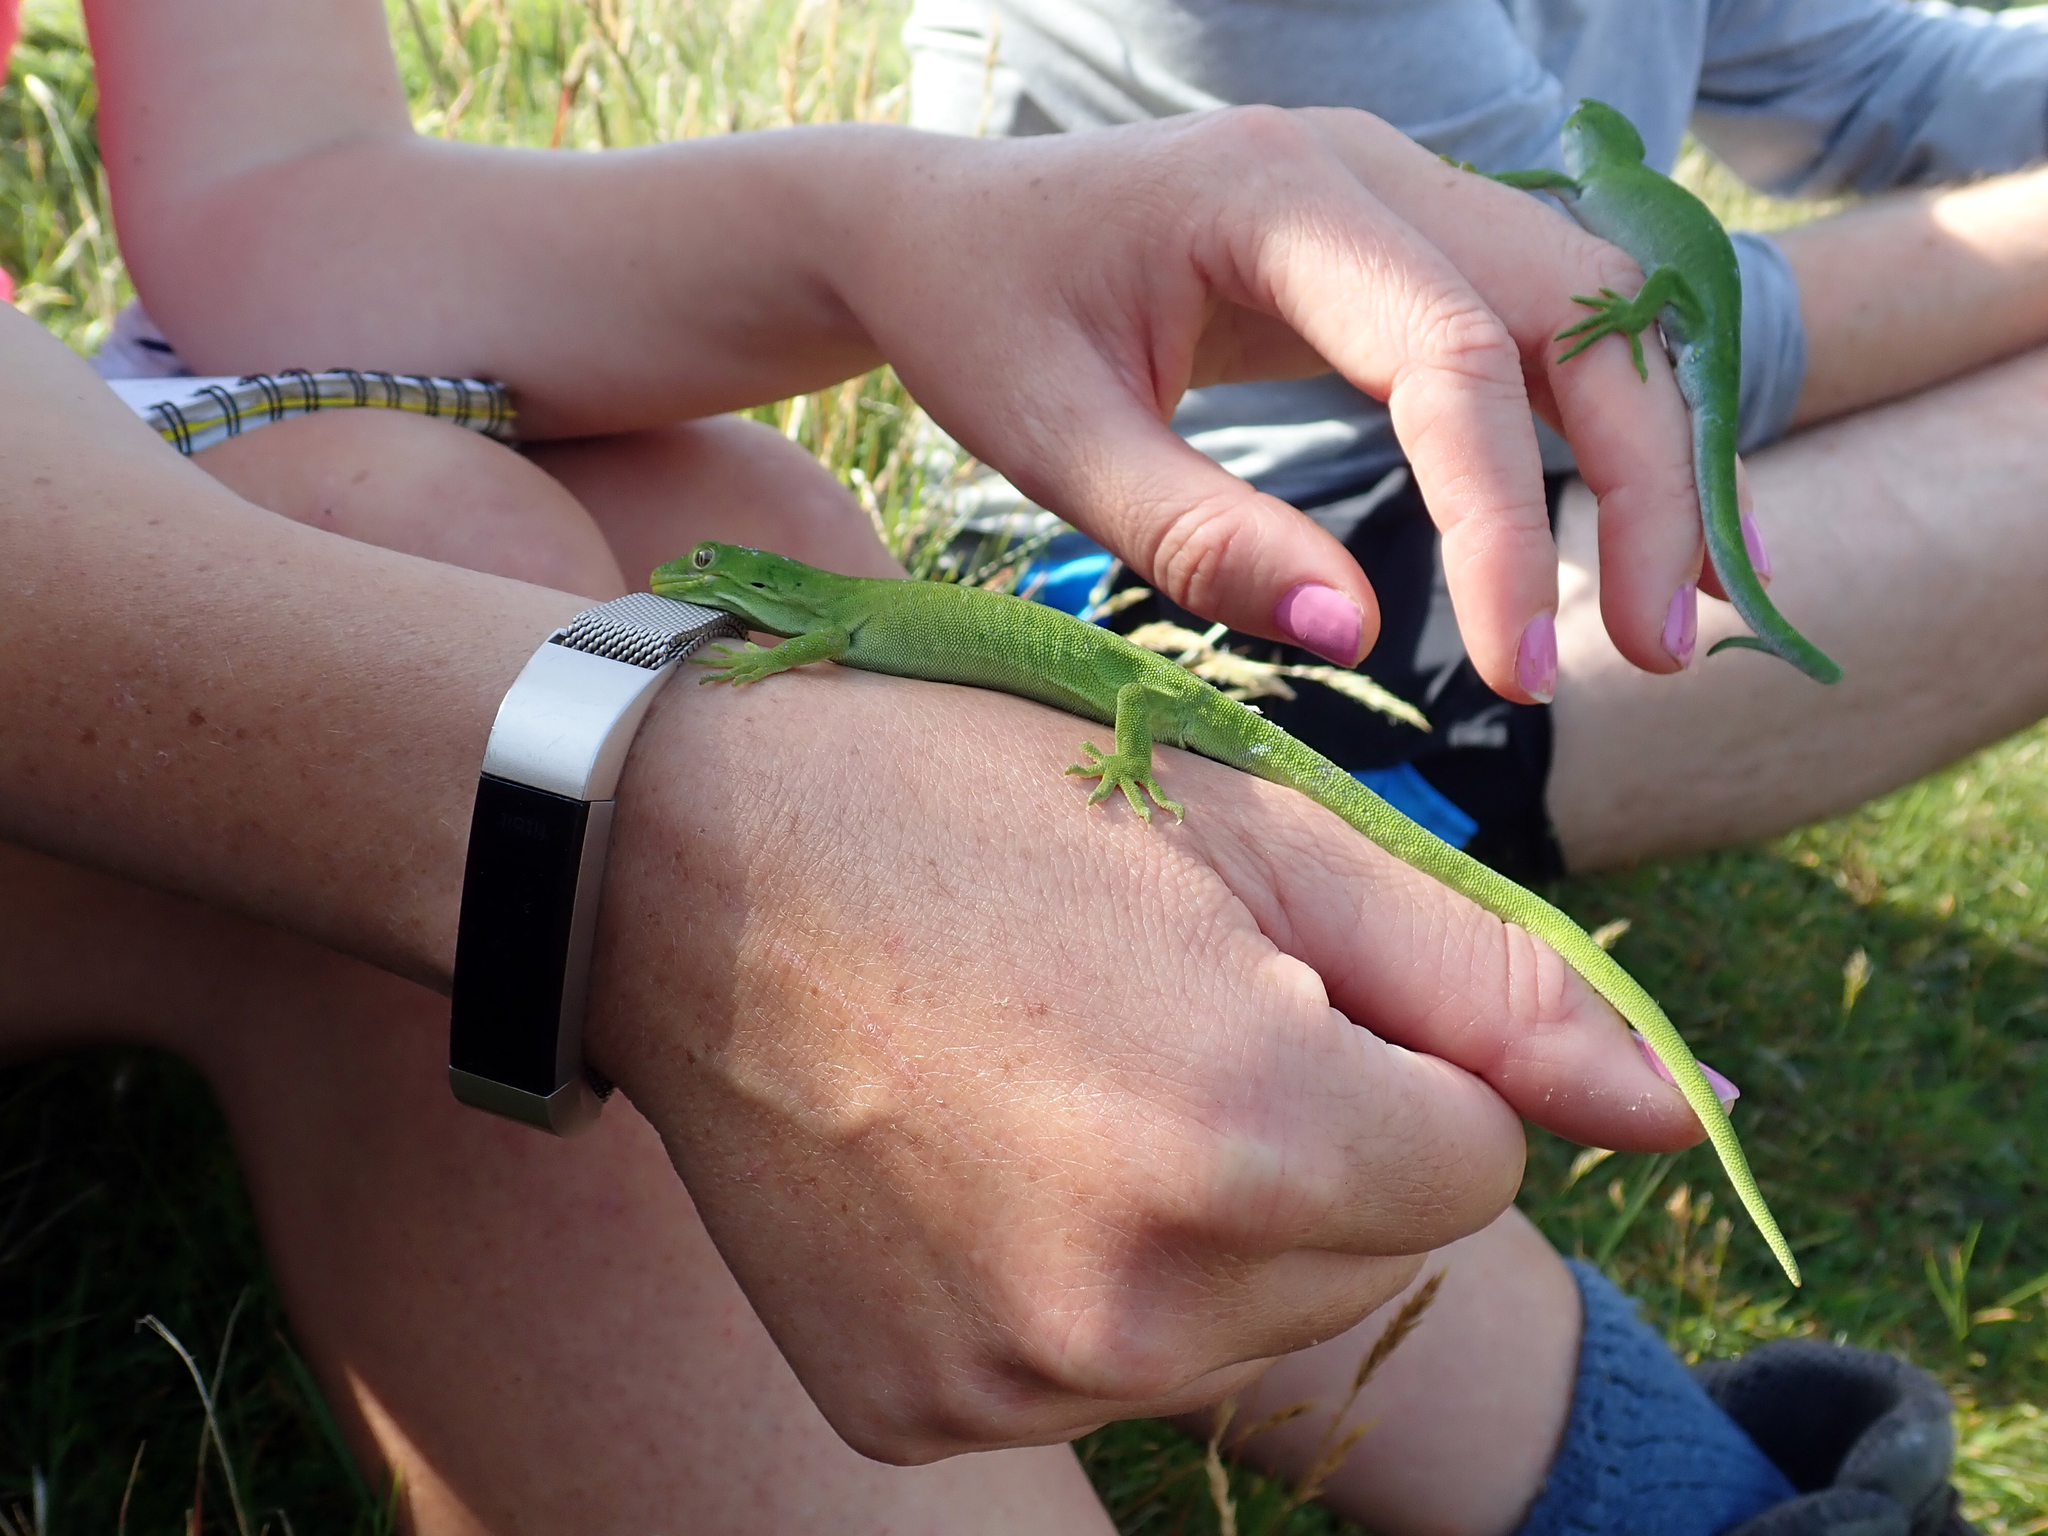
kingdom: Animalia
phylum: Chordata
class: Squamata
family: Diplodactylidae
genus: Naultinus
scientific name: Naultinus stellatus
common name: Nelson green gecko
